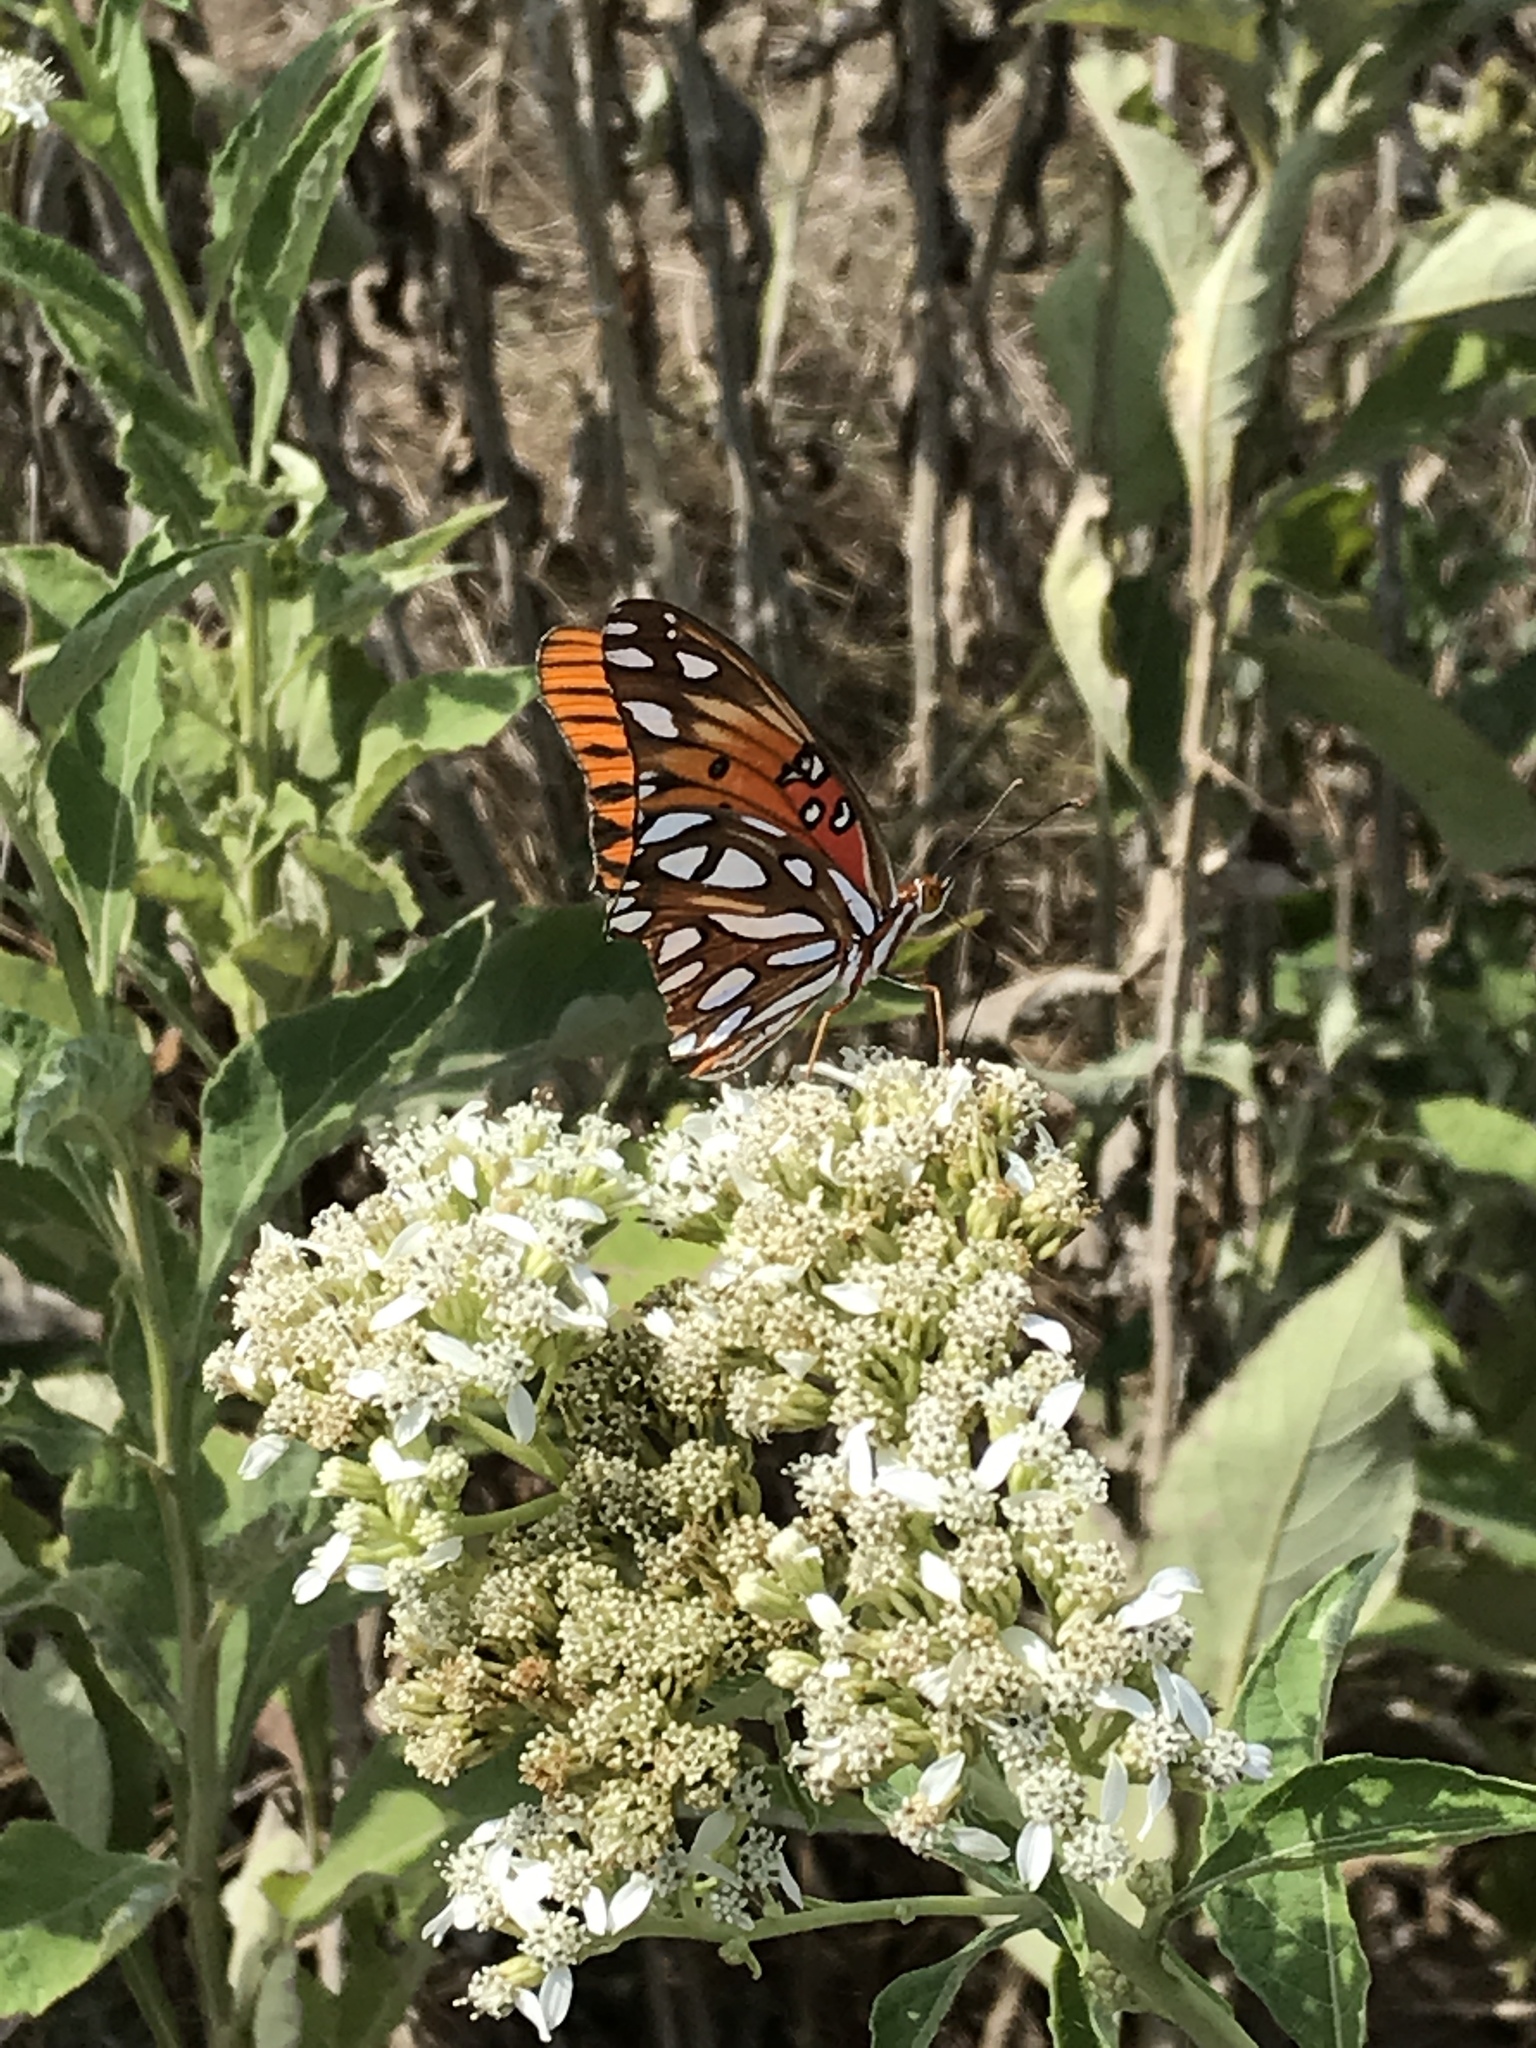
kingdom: Animalia
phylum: Arthropoda
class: Insecta
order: Lepidoptera
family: Nymphalidae
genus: Dione
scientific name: Dione vanillae
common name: Gulf fritillary
